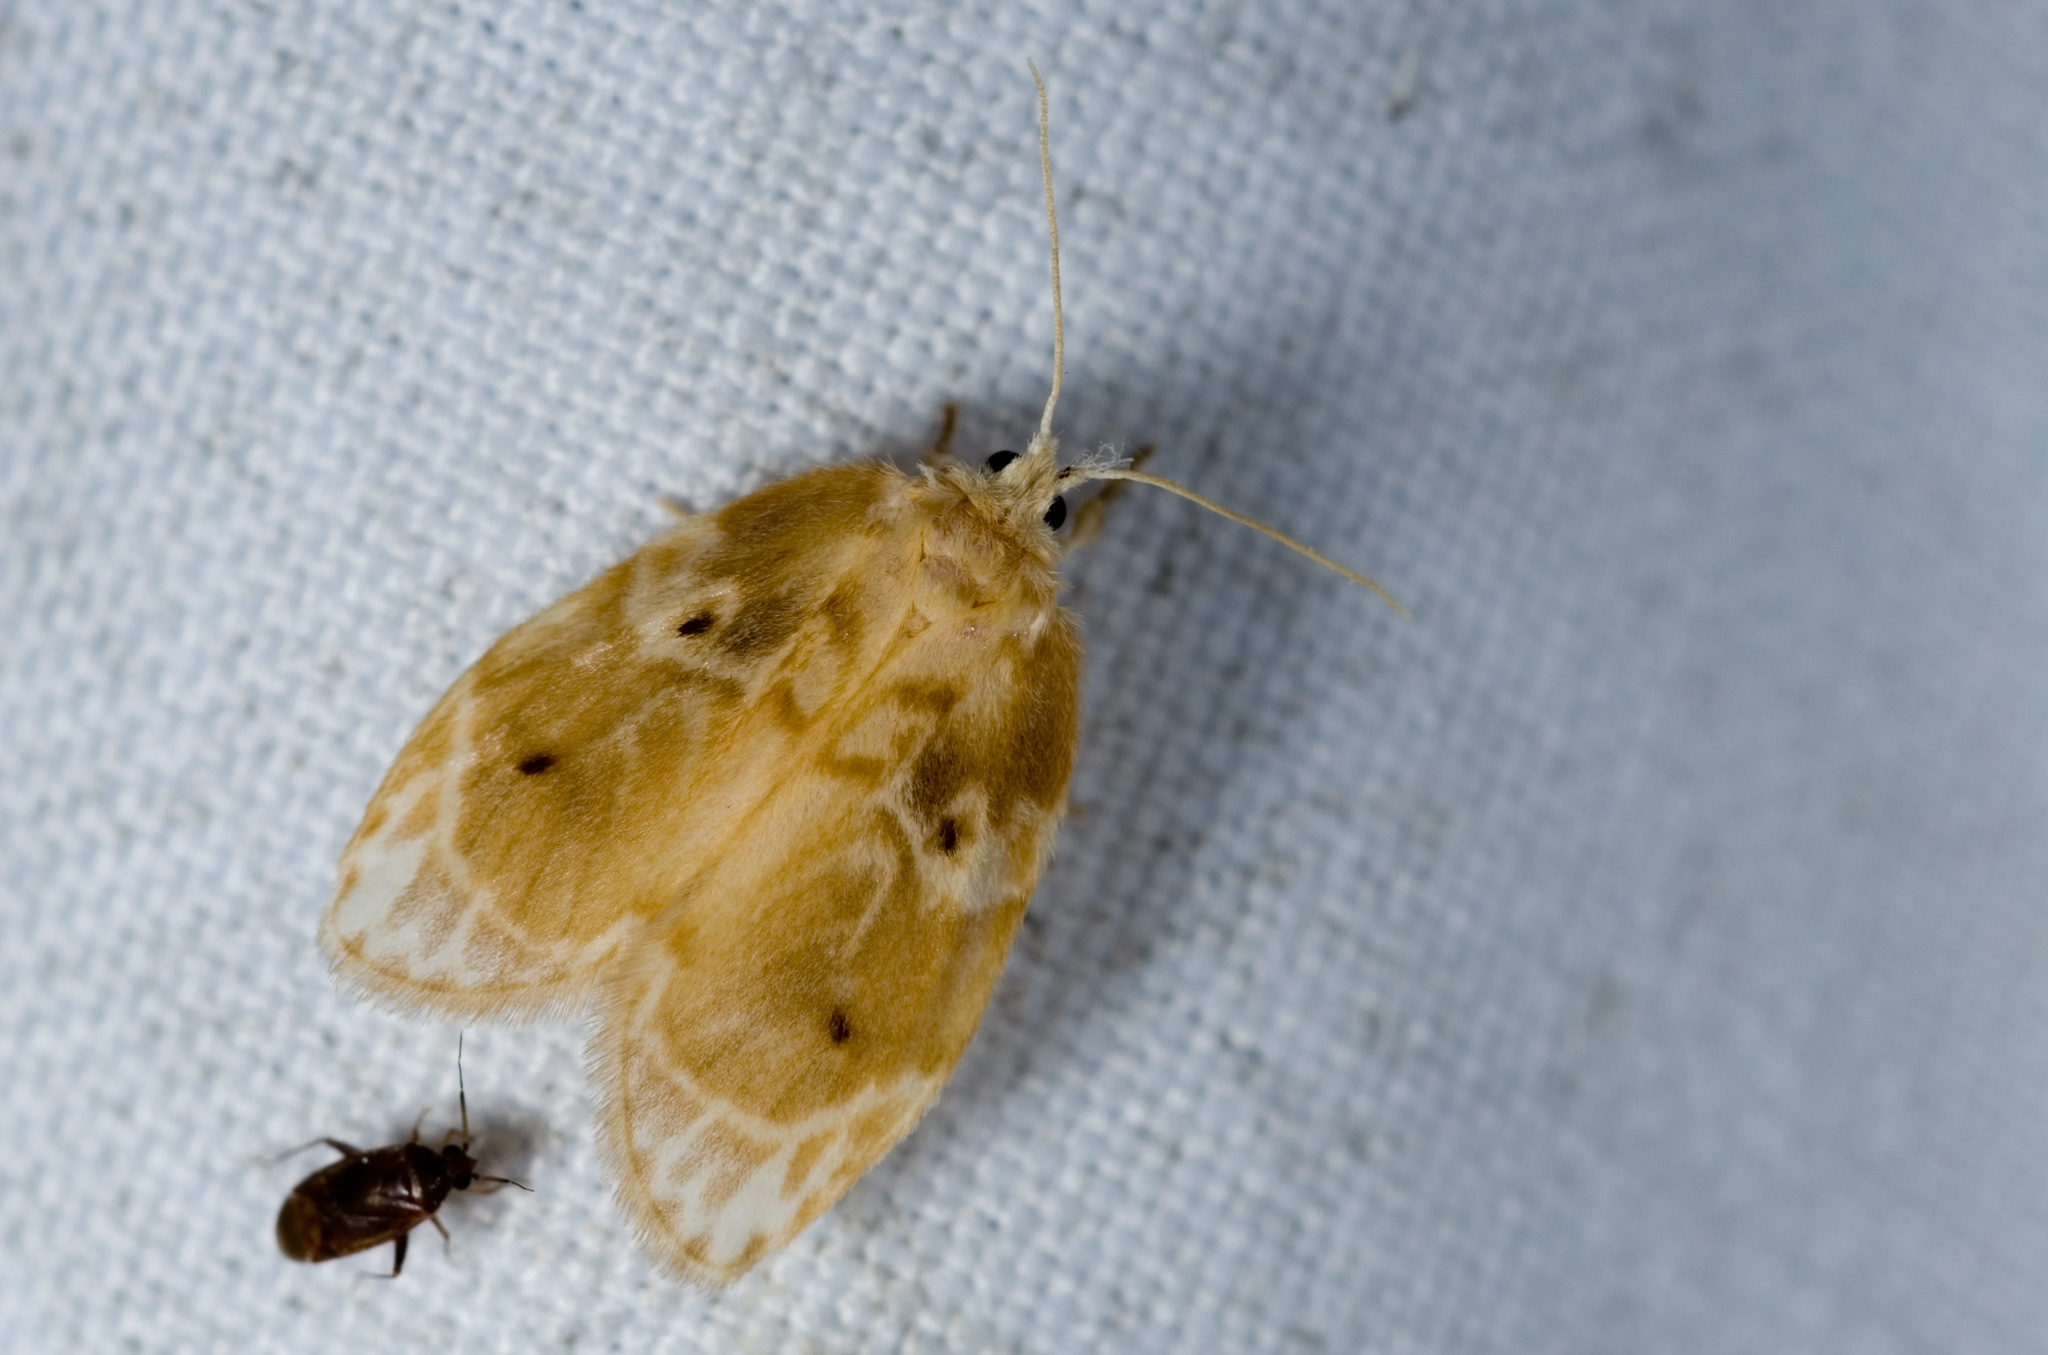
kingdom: Animalia
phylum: Arthropoda
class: Insecta
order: Lepidoptera
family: Erebidae
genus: Schistophleps
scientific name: Schistophleps bipuncta
